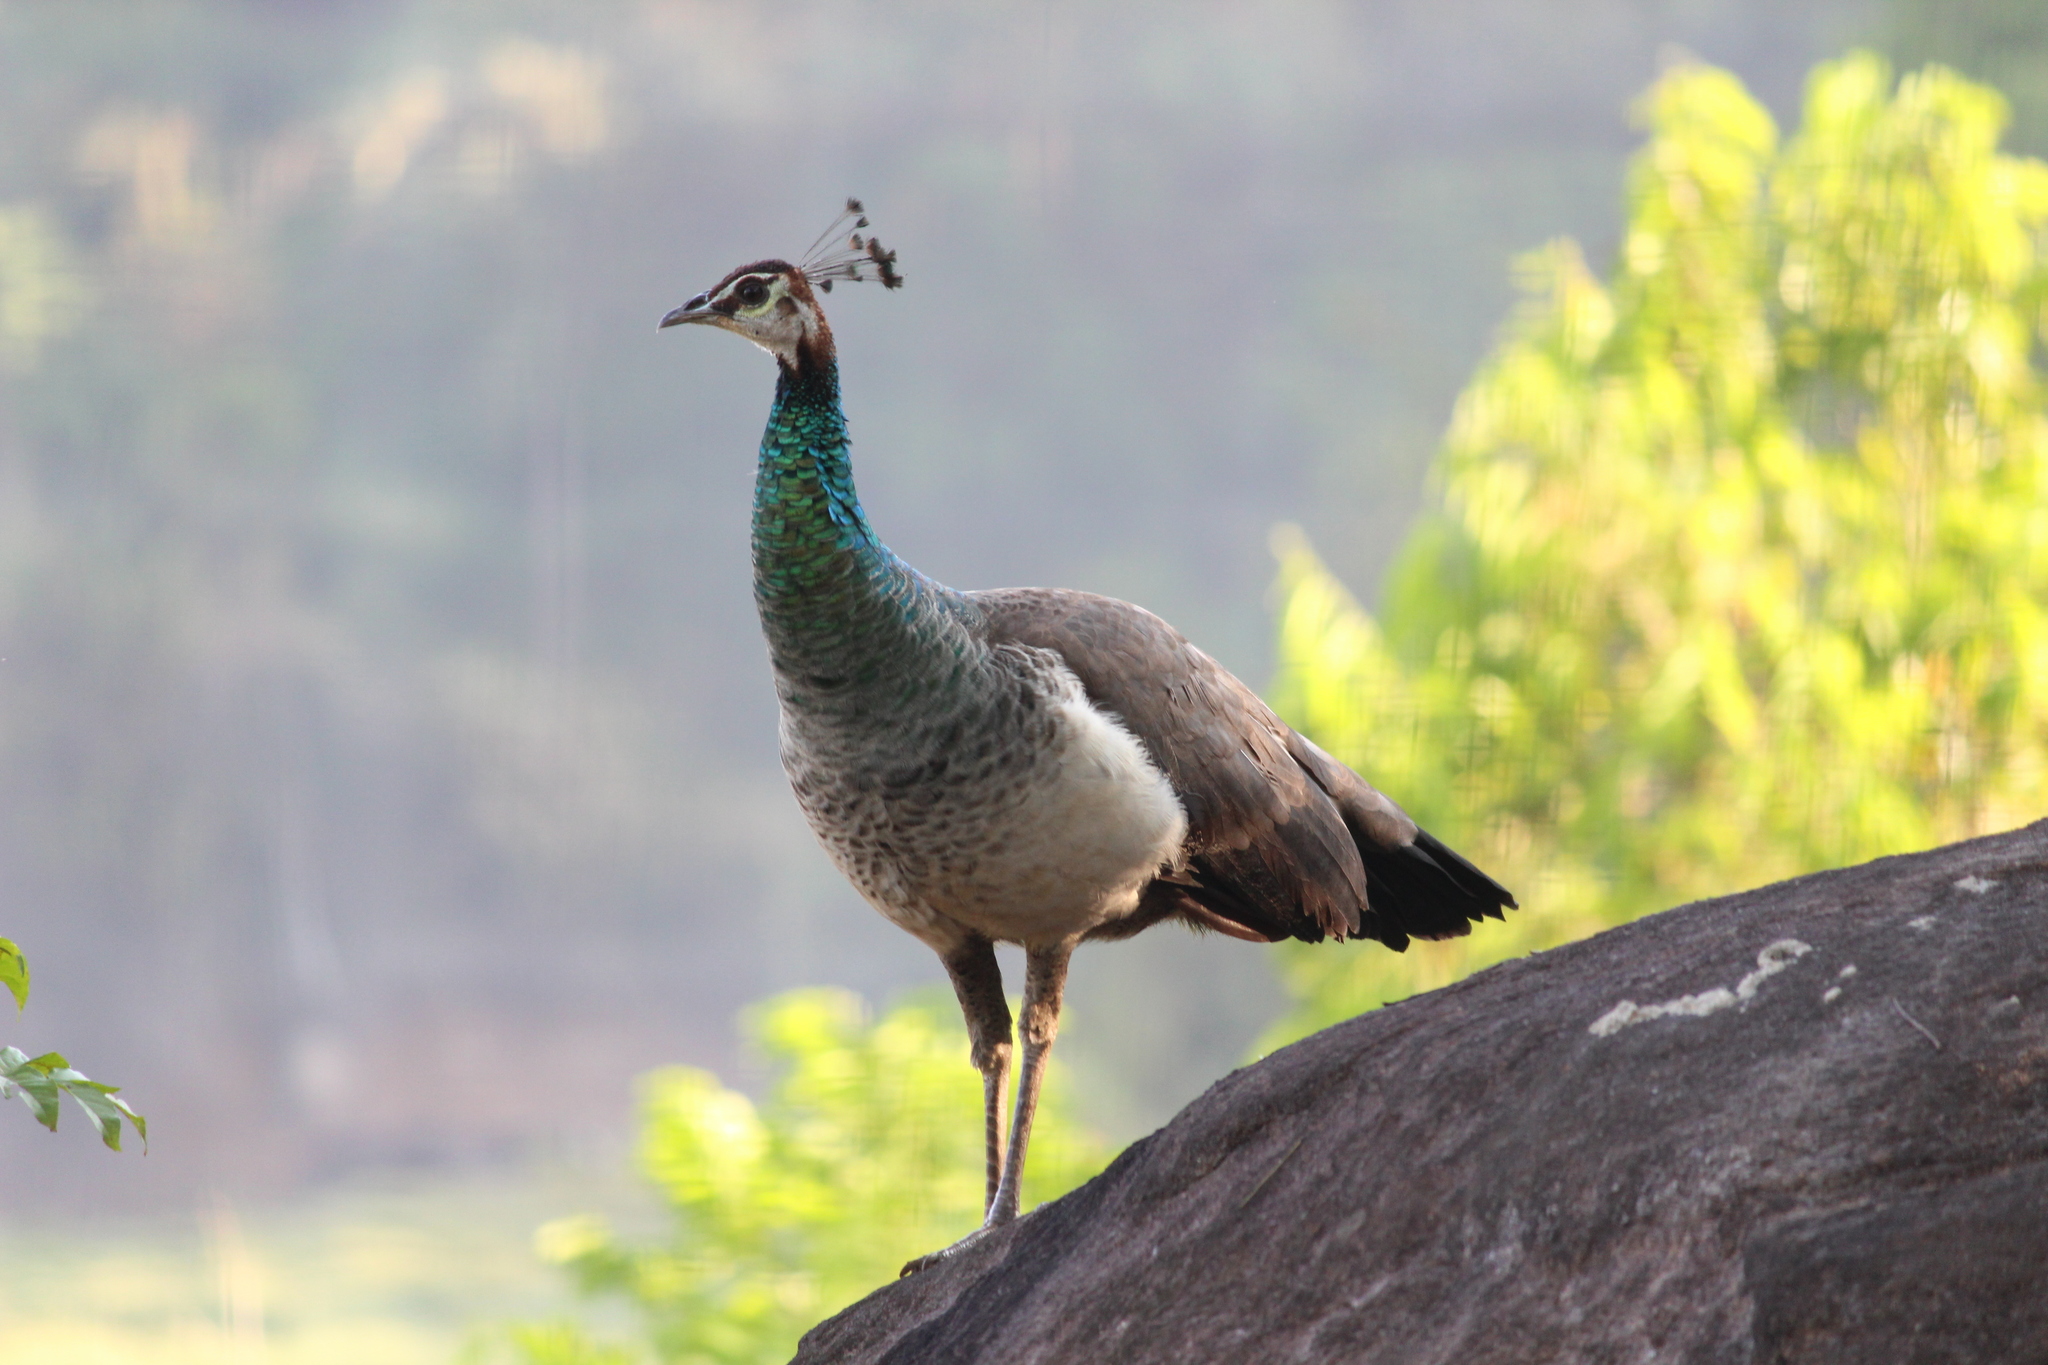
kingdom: Animalia
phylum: Chordata
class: Aves
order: Galliformes
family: Phasianidae
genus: Pavo
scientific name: Pavo cristatus
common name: Indian peafowl
